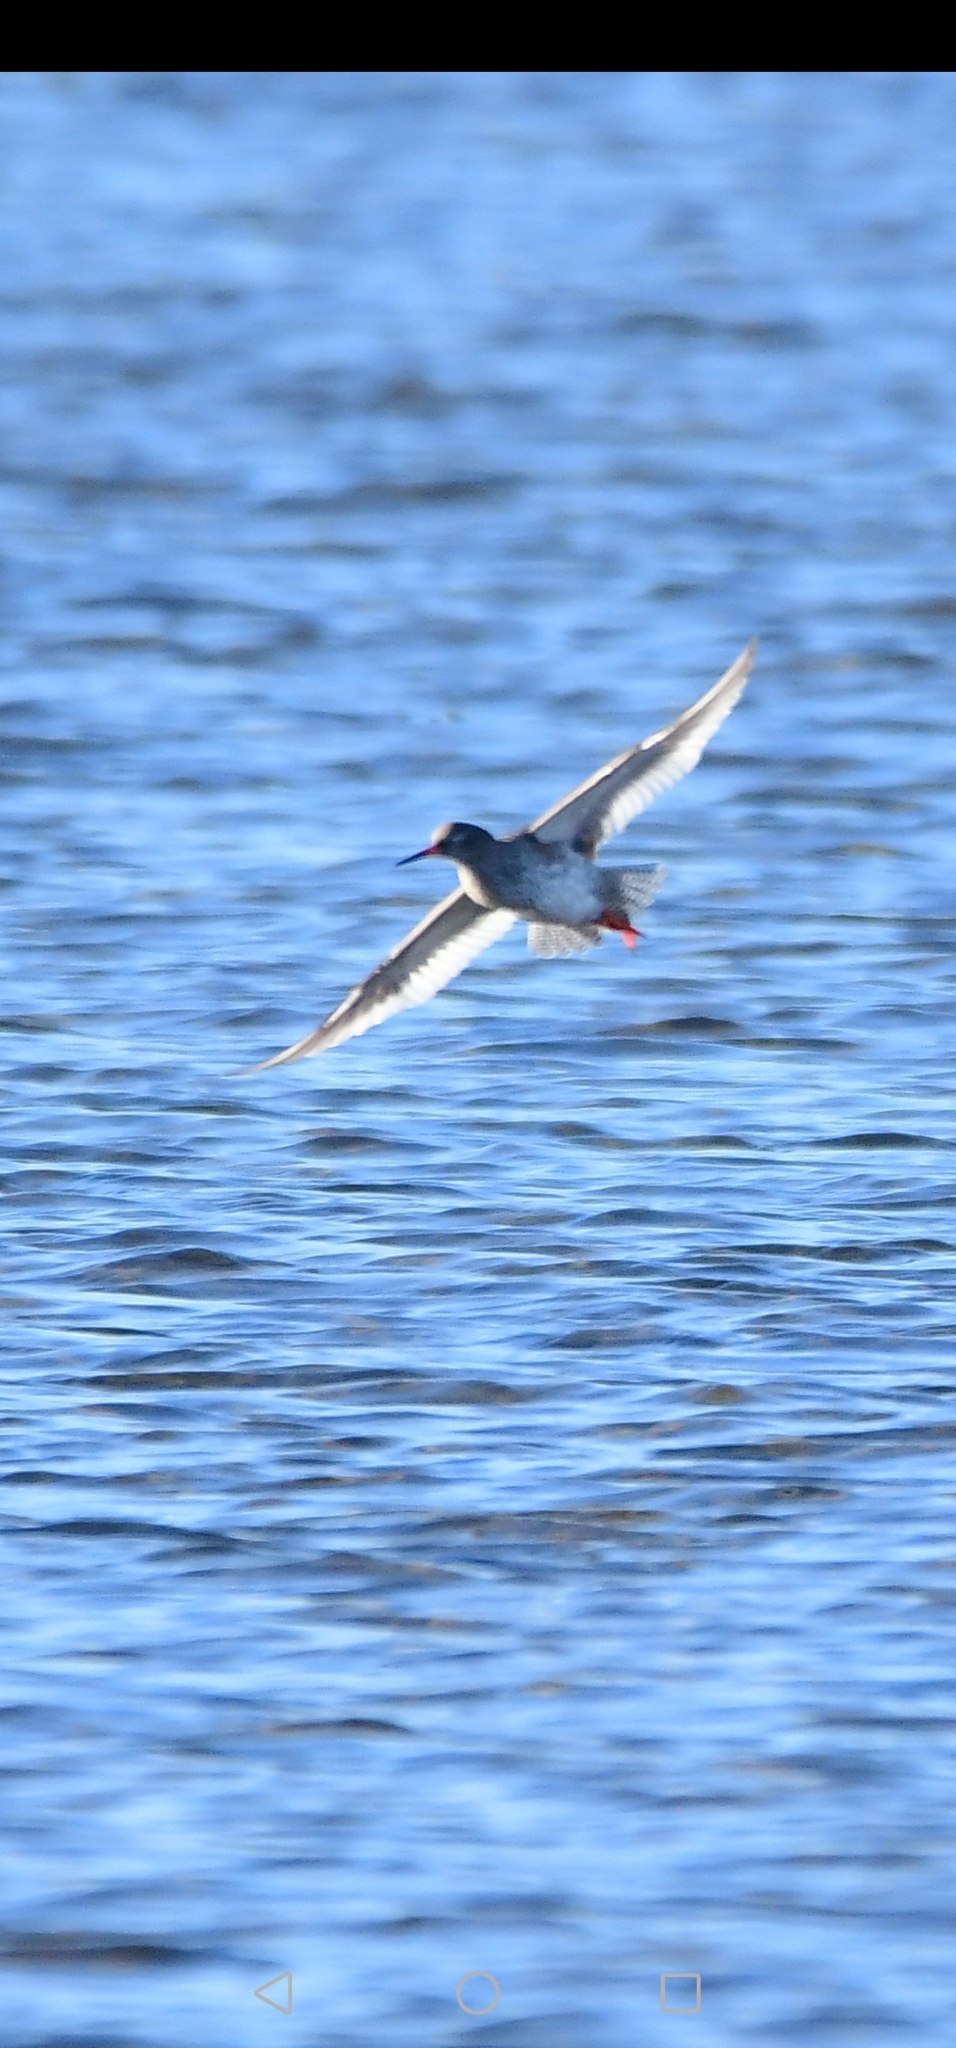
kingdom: Animalia
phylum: Chordata
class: Aves
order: Charadriiformes
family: Scolopacidae
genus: Tringa
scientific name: Tringa totanus
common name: Common redshank
